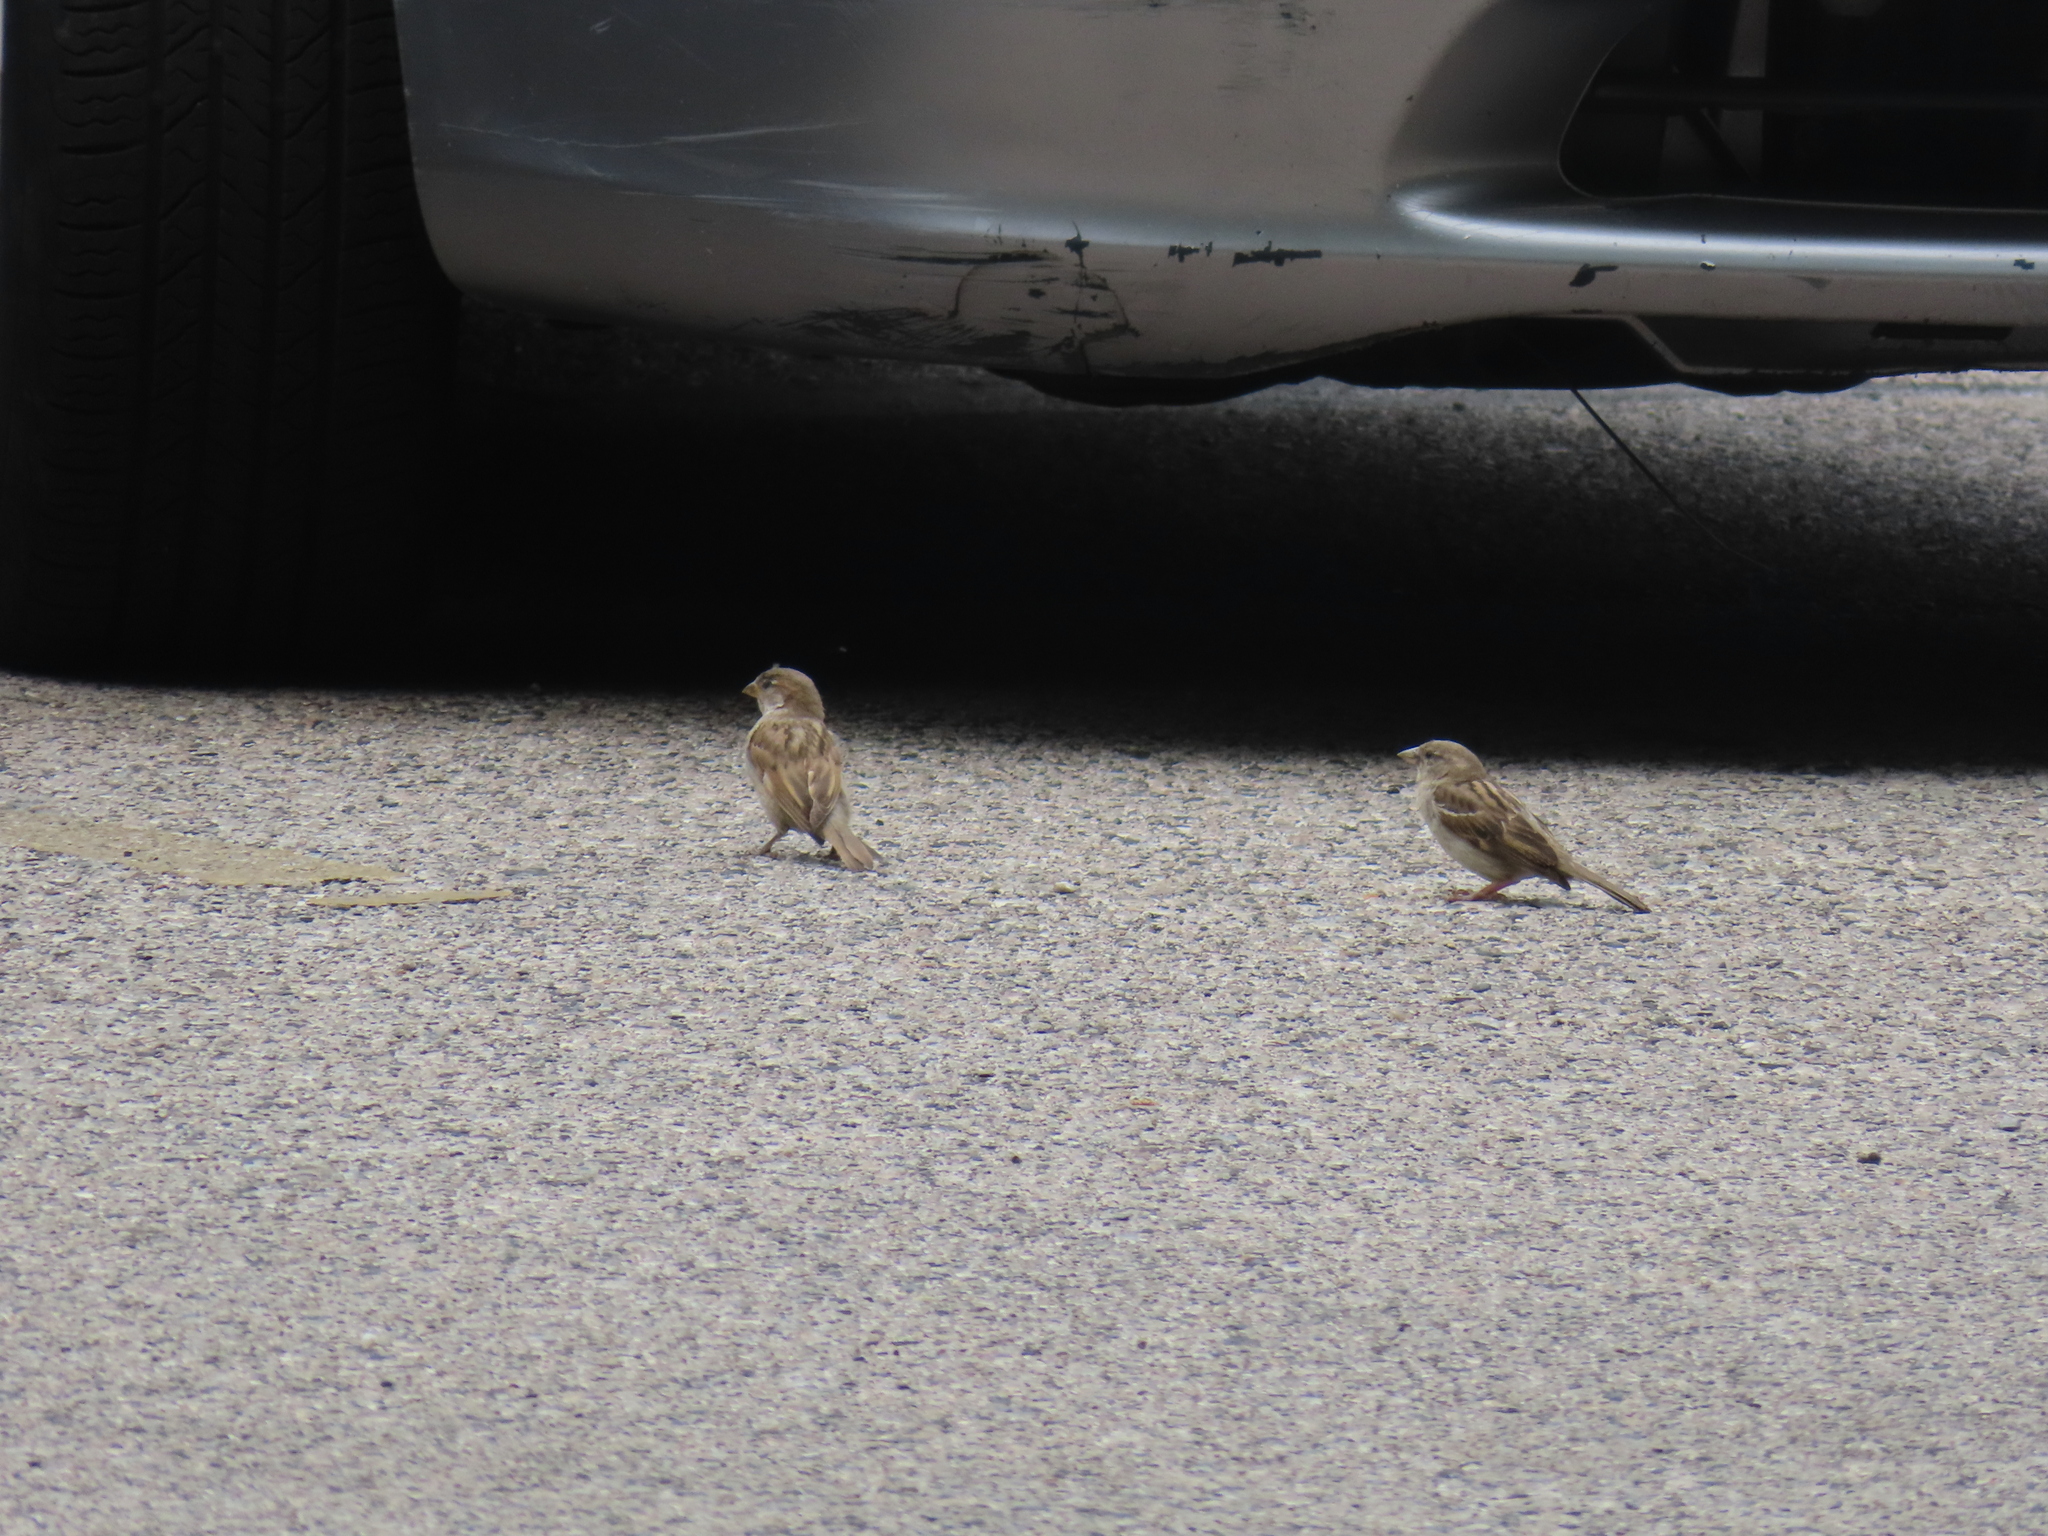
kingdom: Animalia
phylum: Chordata
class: Aves
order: Passeriformes
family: Passeridae
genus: Passer
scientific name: Passer domesticus
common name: House sparrow
